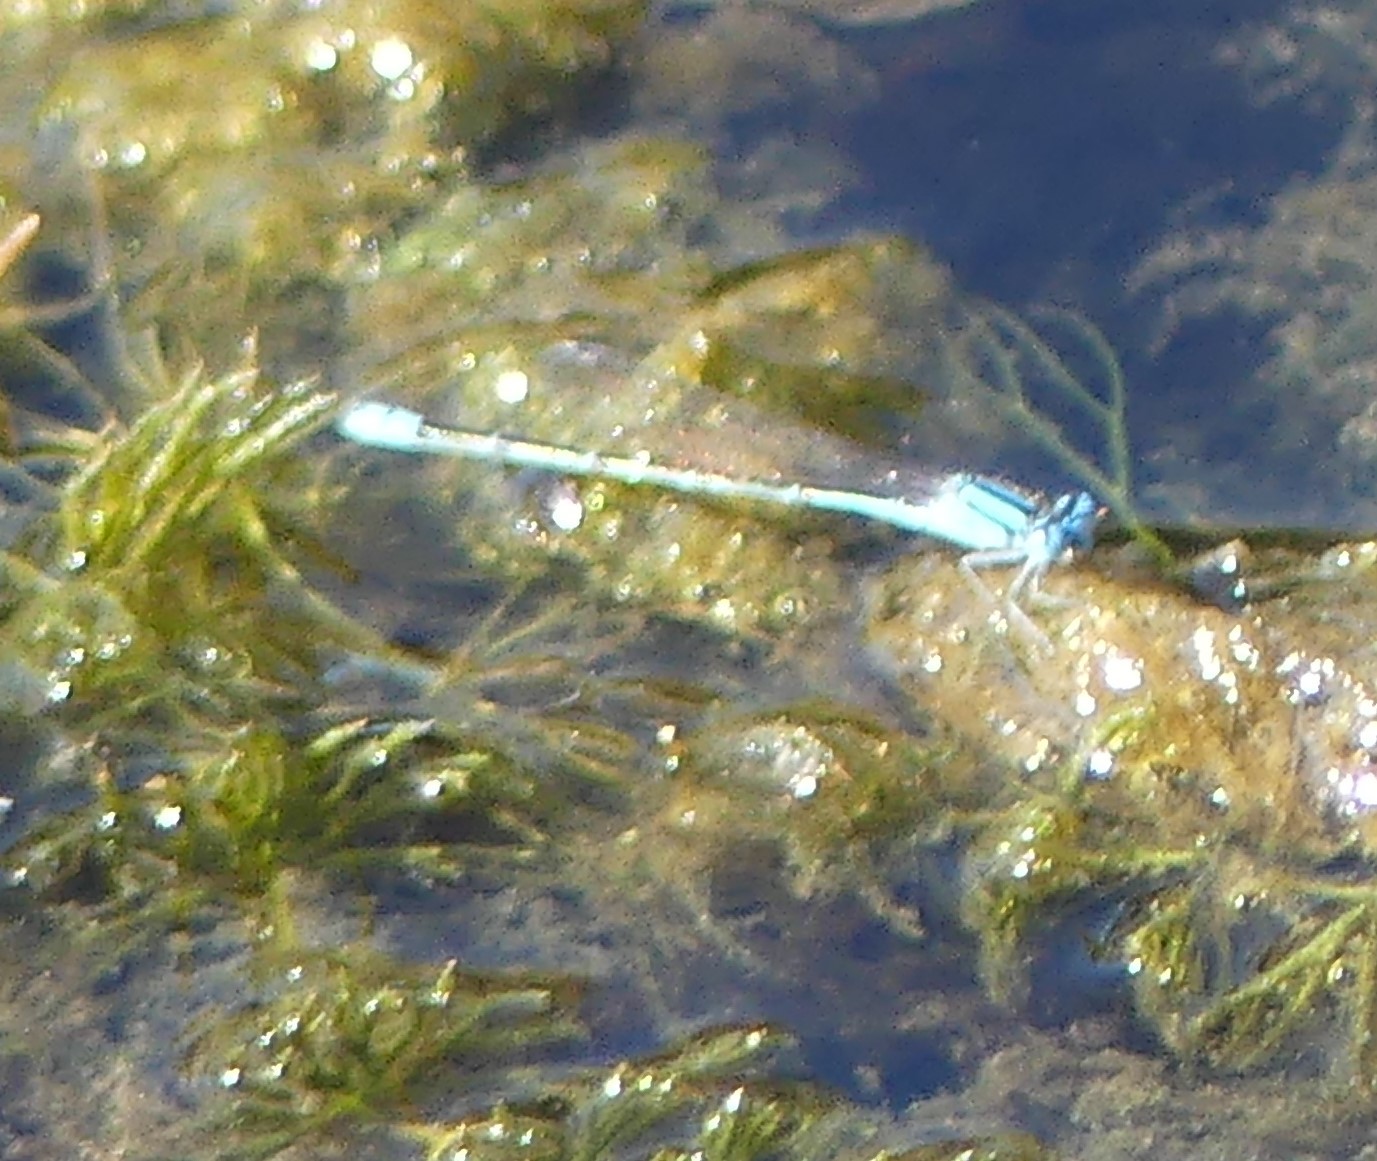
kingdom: Animalia
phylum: Arthropoda
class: Insecta
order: Odonata
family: Coenagrionidae
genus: Pseudagrion
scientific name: Pseudagrion microcephalum
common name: Blue riverdamsel
